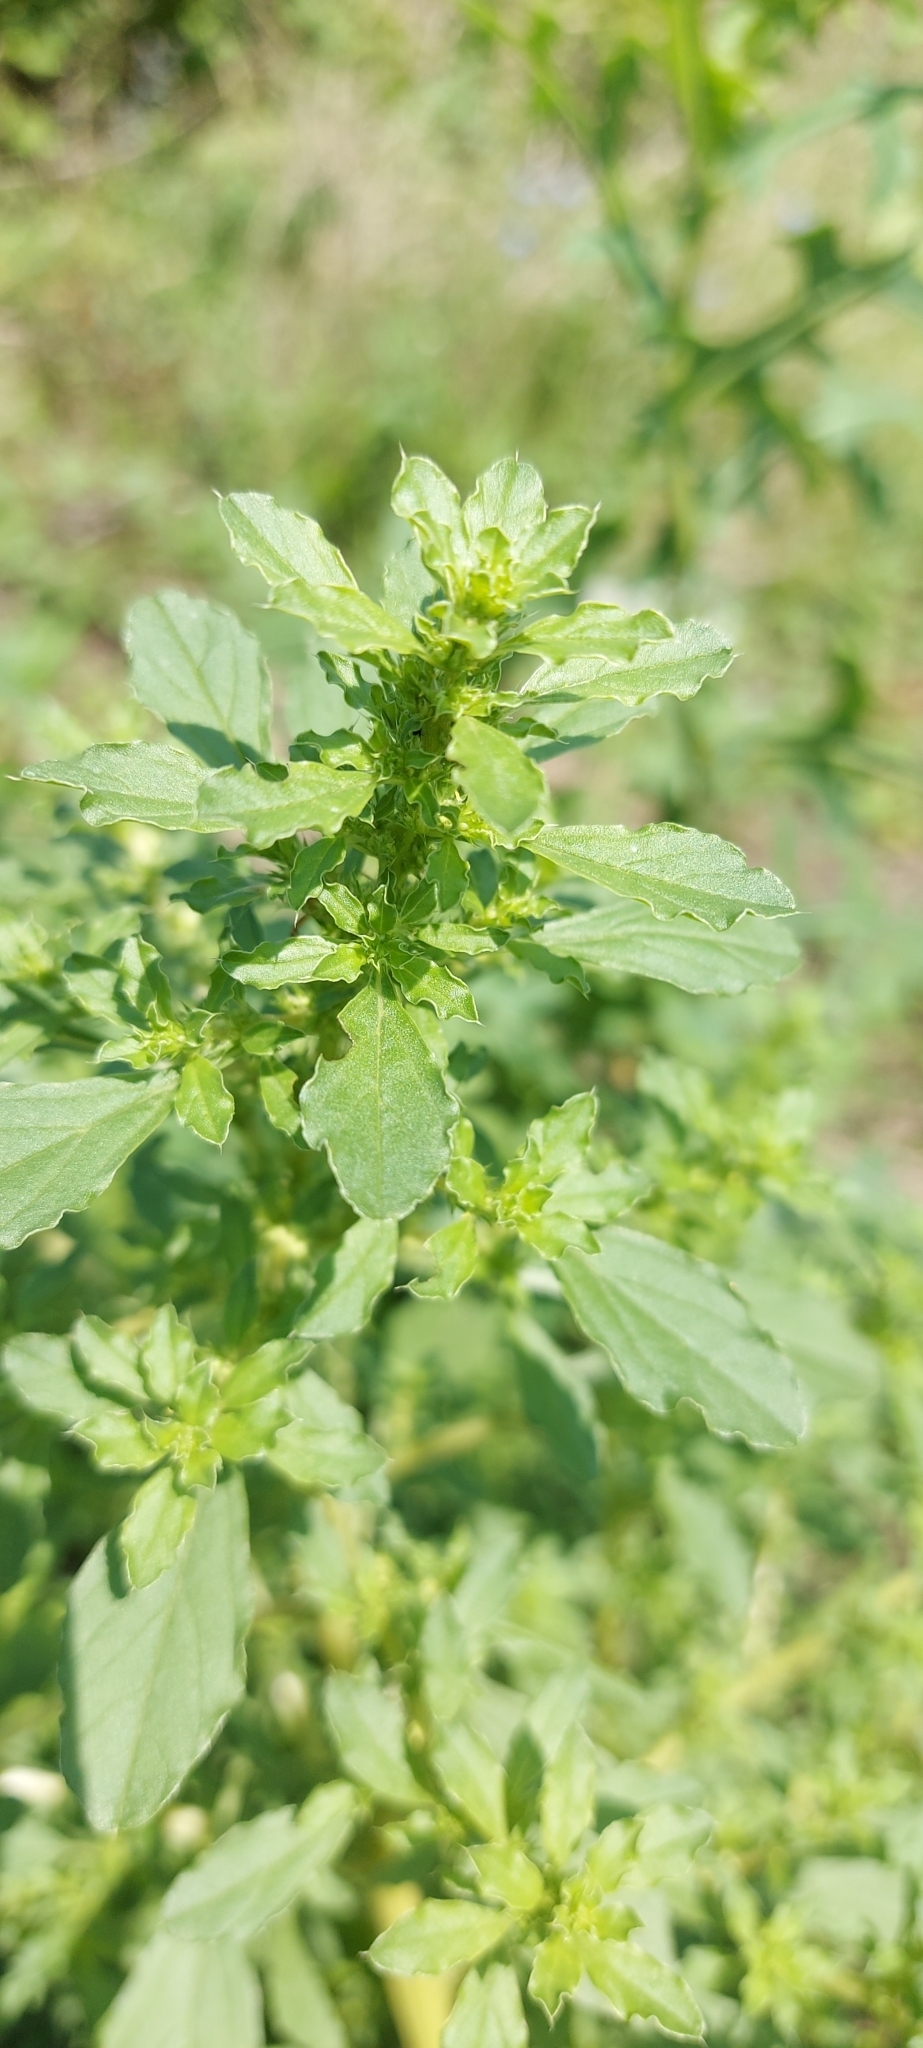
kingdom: Plantae
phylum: Tracheophyta
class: Magnoliopsida
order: Caryophyllales
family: Amaranthaceae
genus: Amaranthus
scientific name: Amaranthus albus
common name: White pigweed
